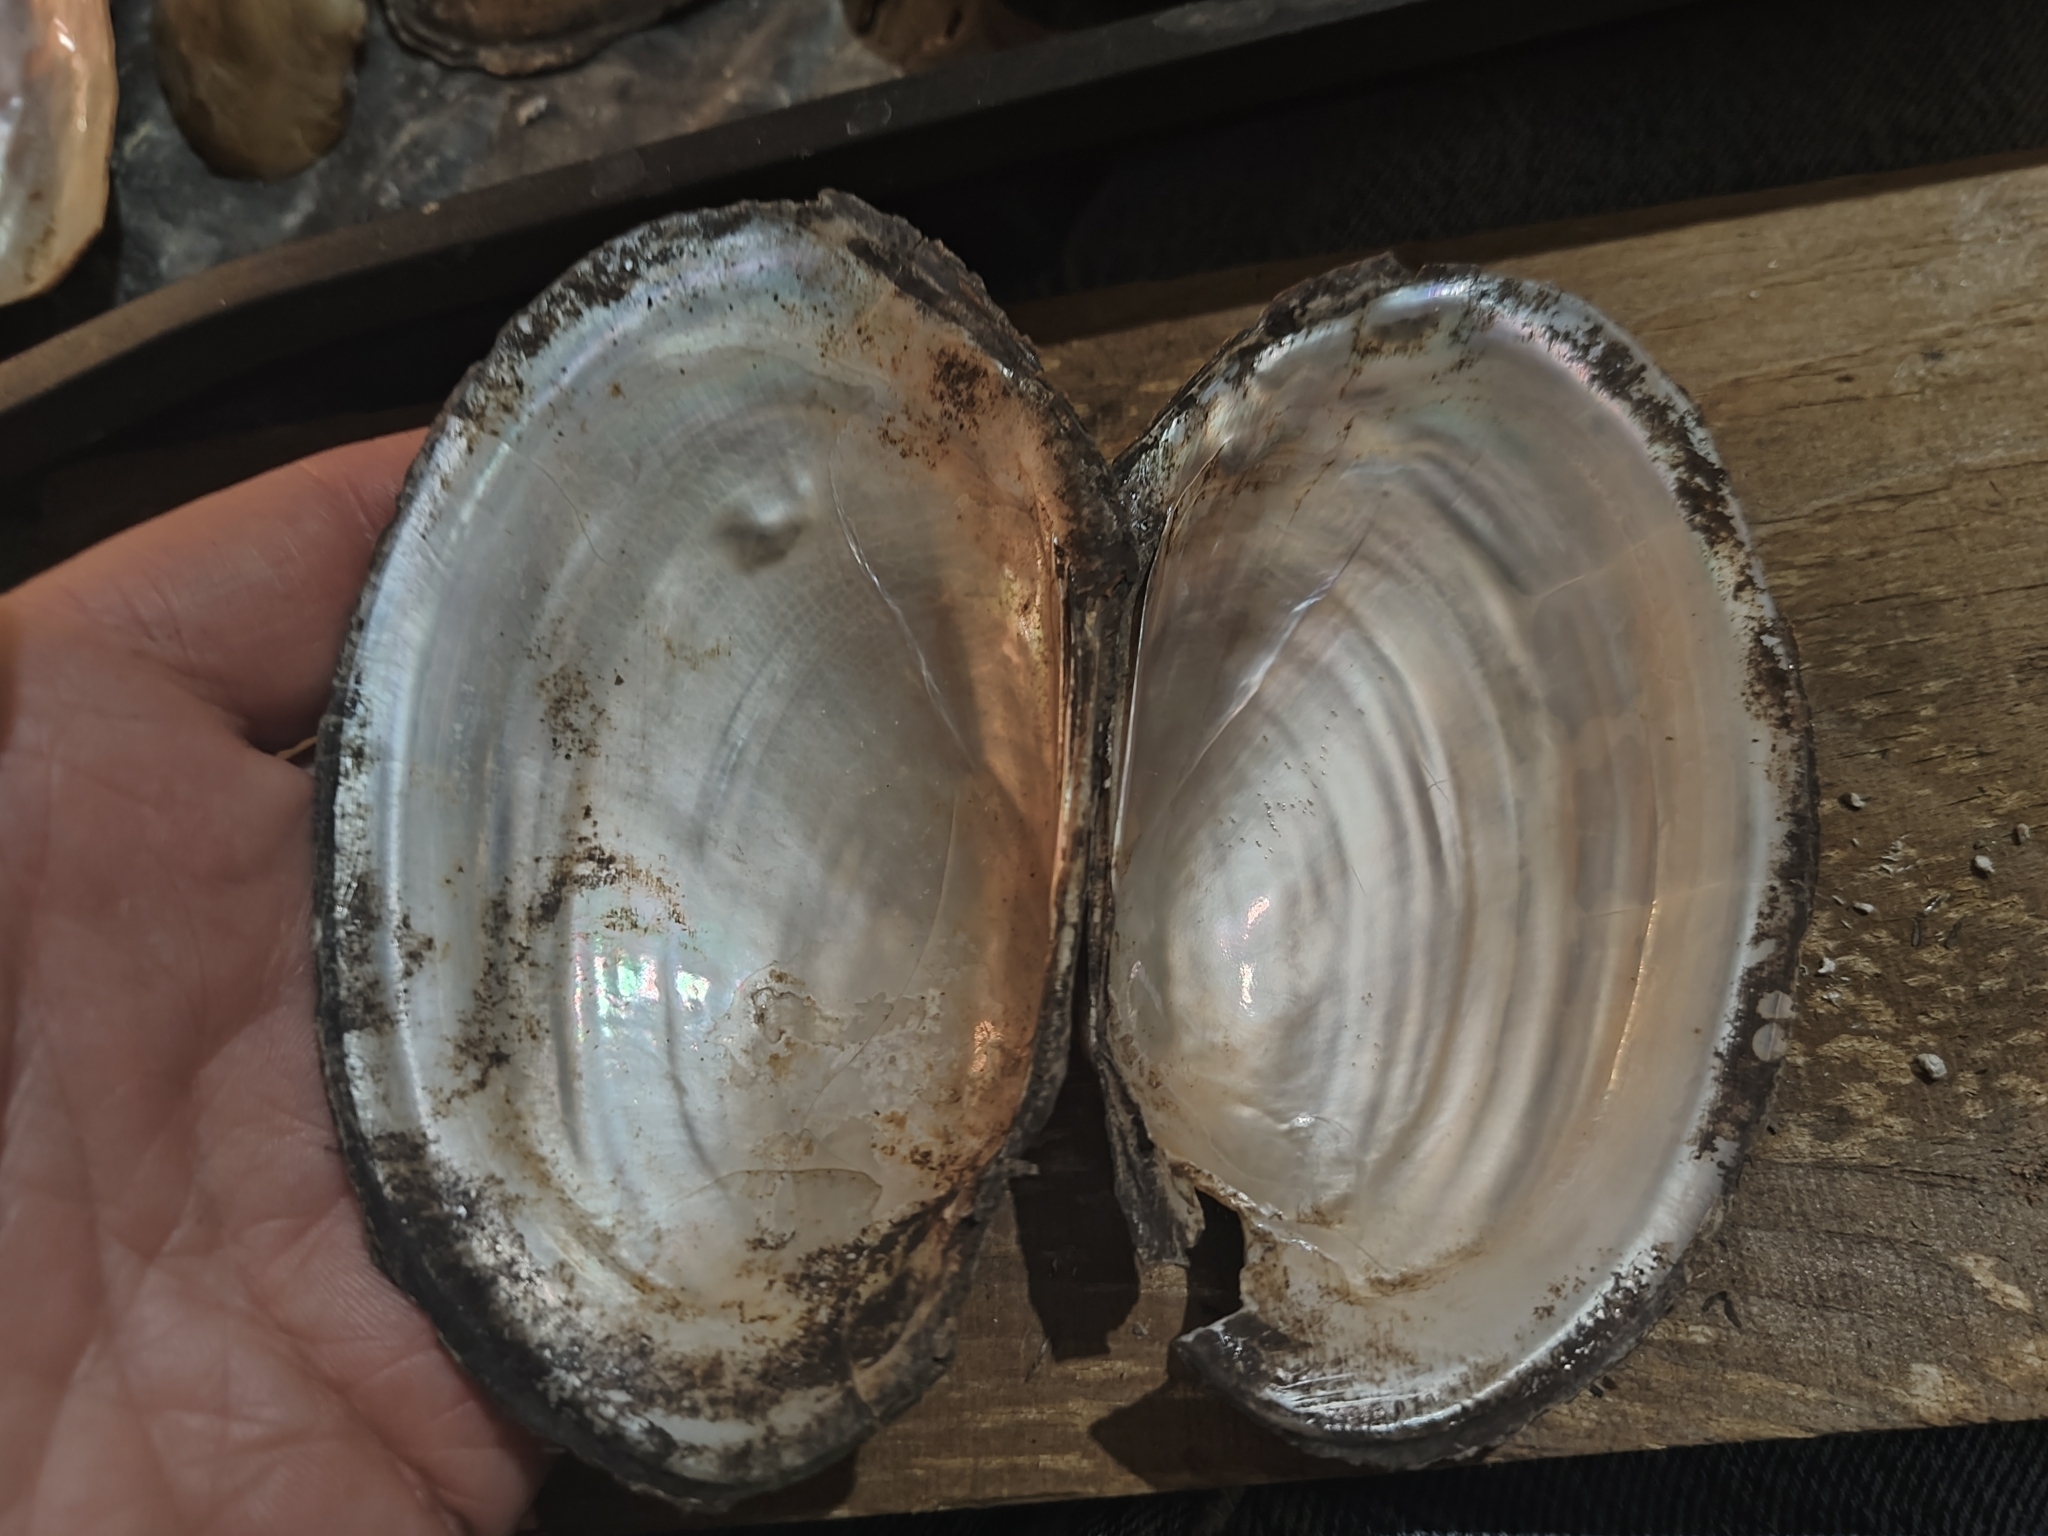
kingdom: Animalia
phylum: Mollusca
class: Bivalvia
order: Unionida
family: Unionidae
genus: Potamilus
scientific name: Potamilus fragilis
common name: Fragile papershell
